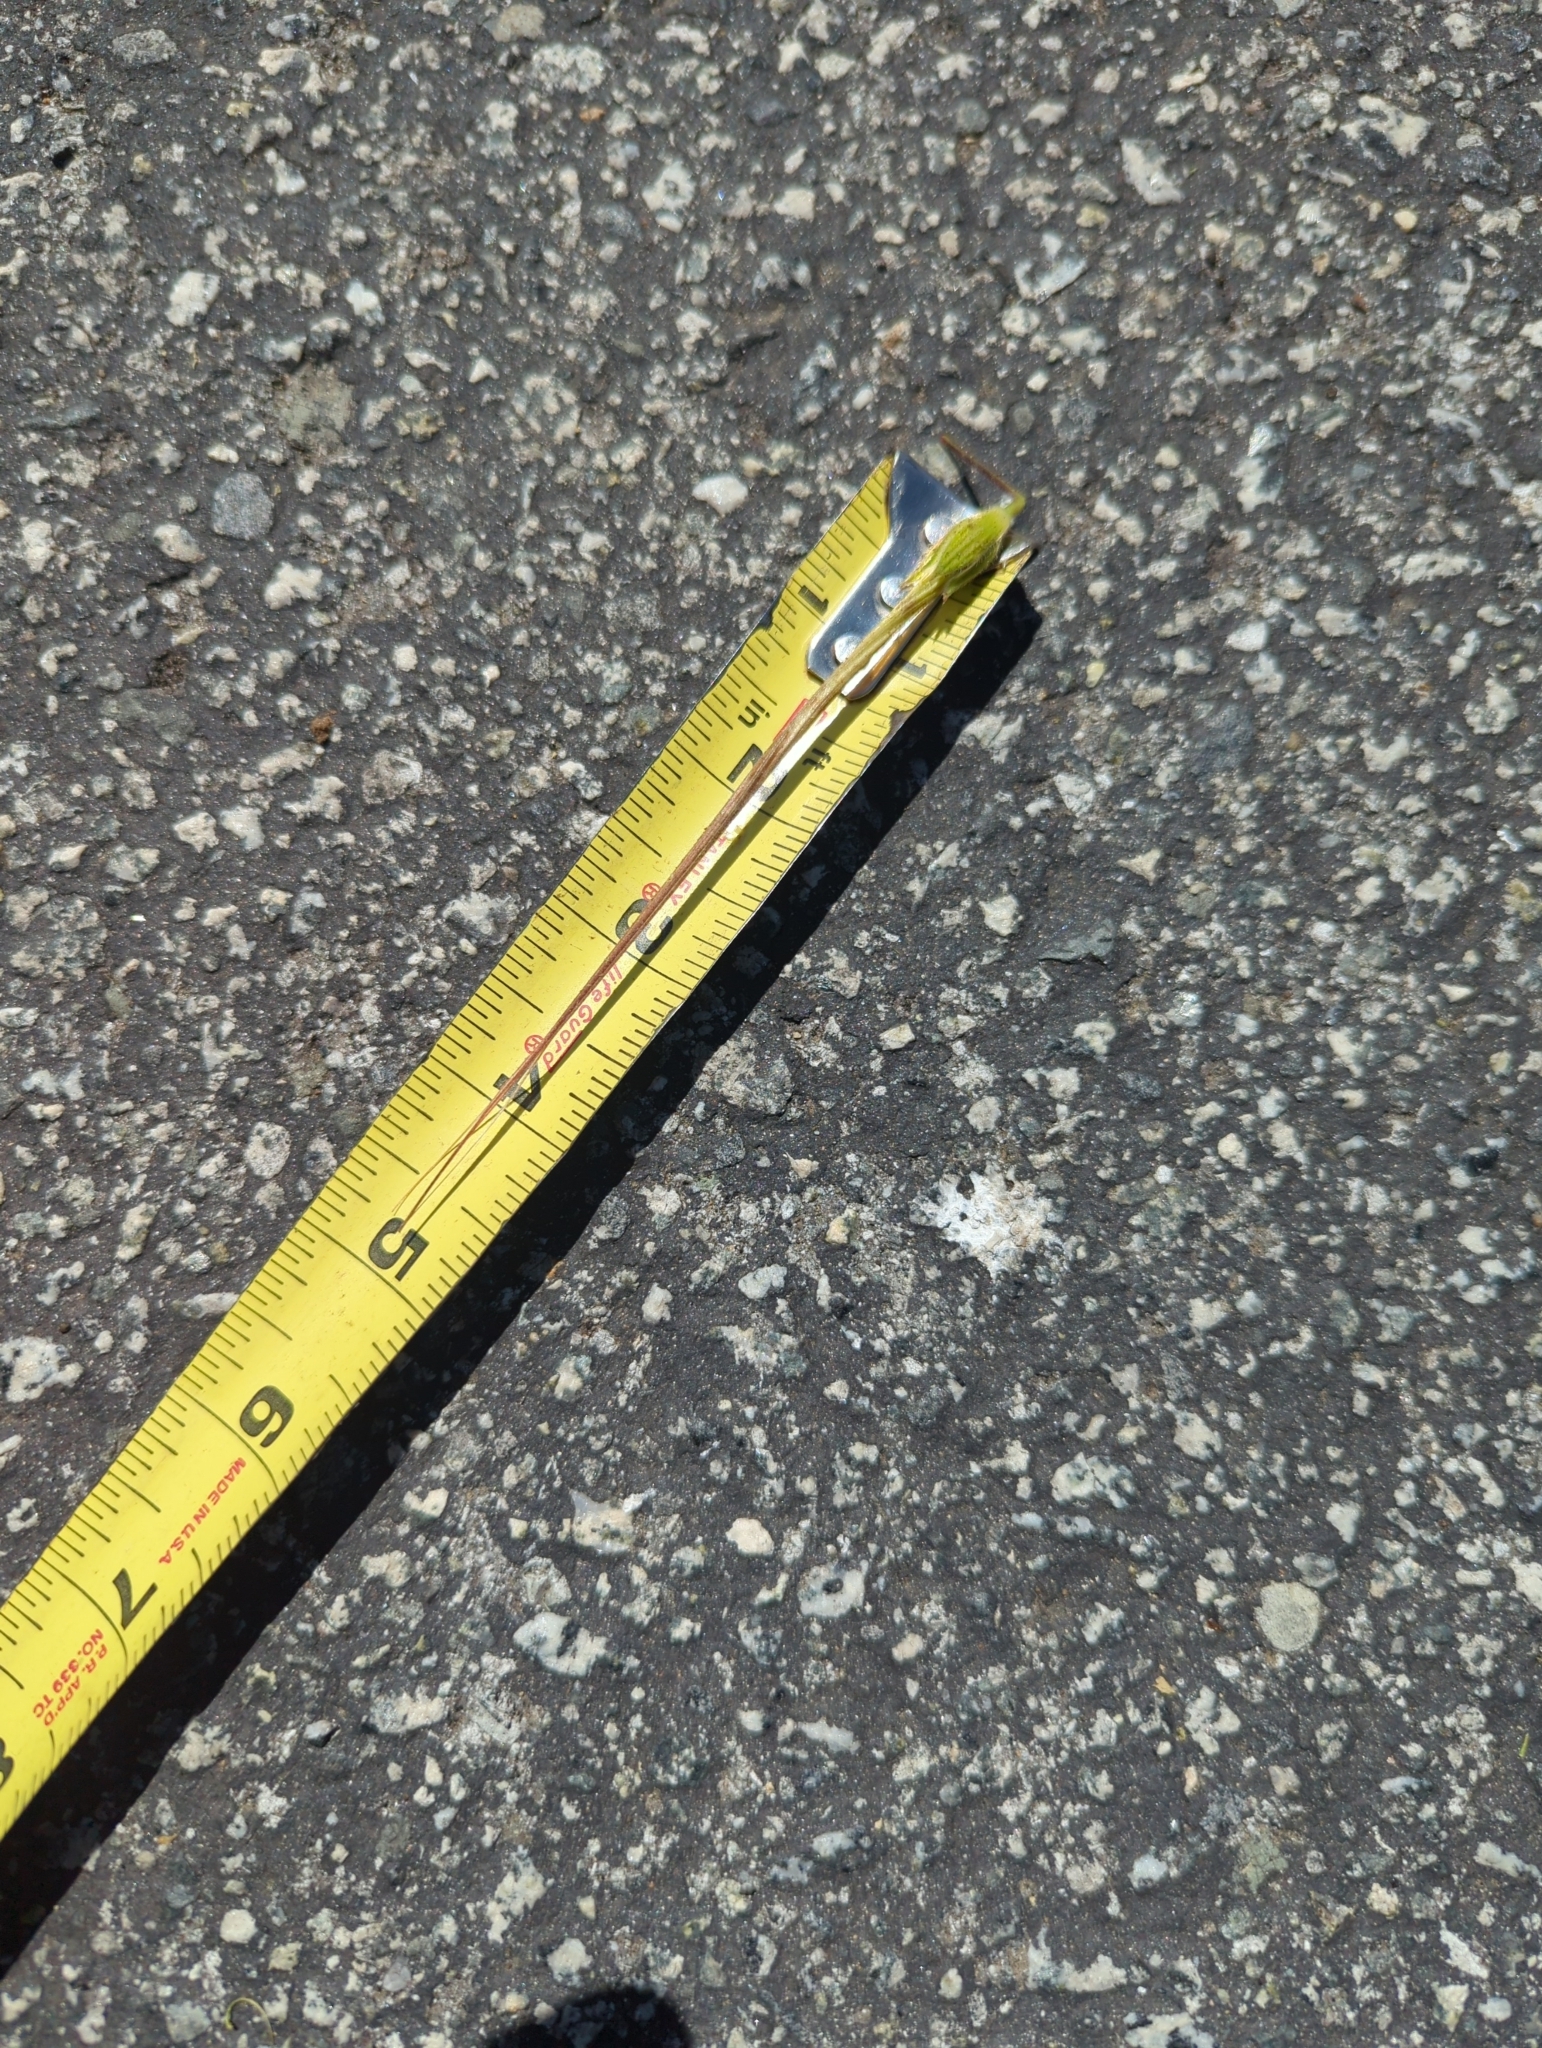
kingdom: Plantae
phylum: Tracheophyta
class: Magnoliopsida
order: Geraniales
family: Geraniaceae
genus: Erodium
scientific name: Erodium
